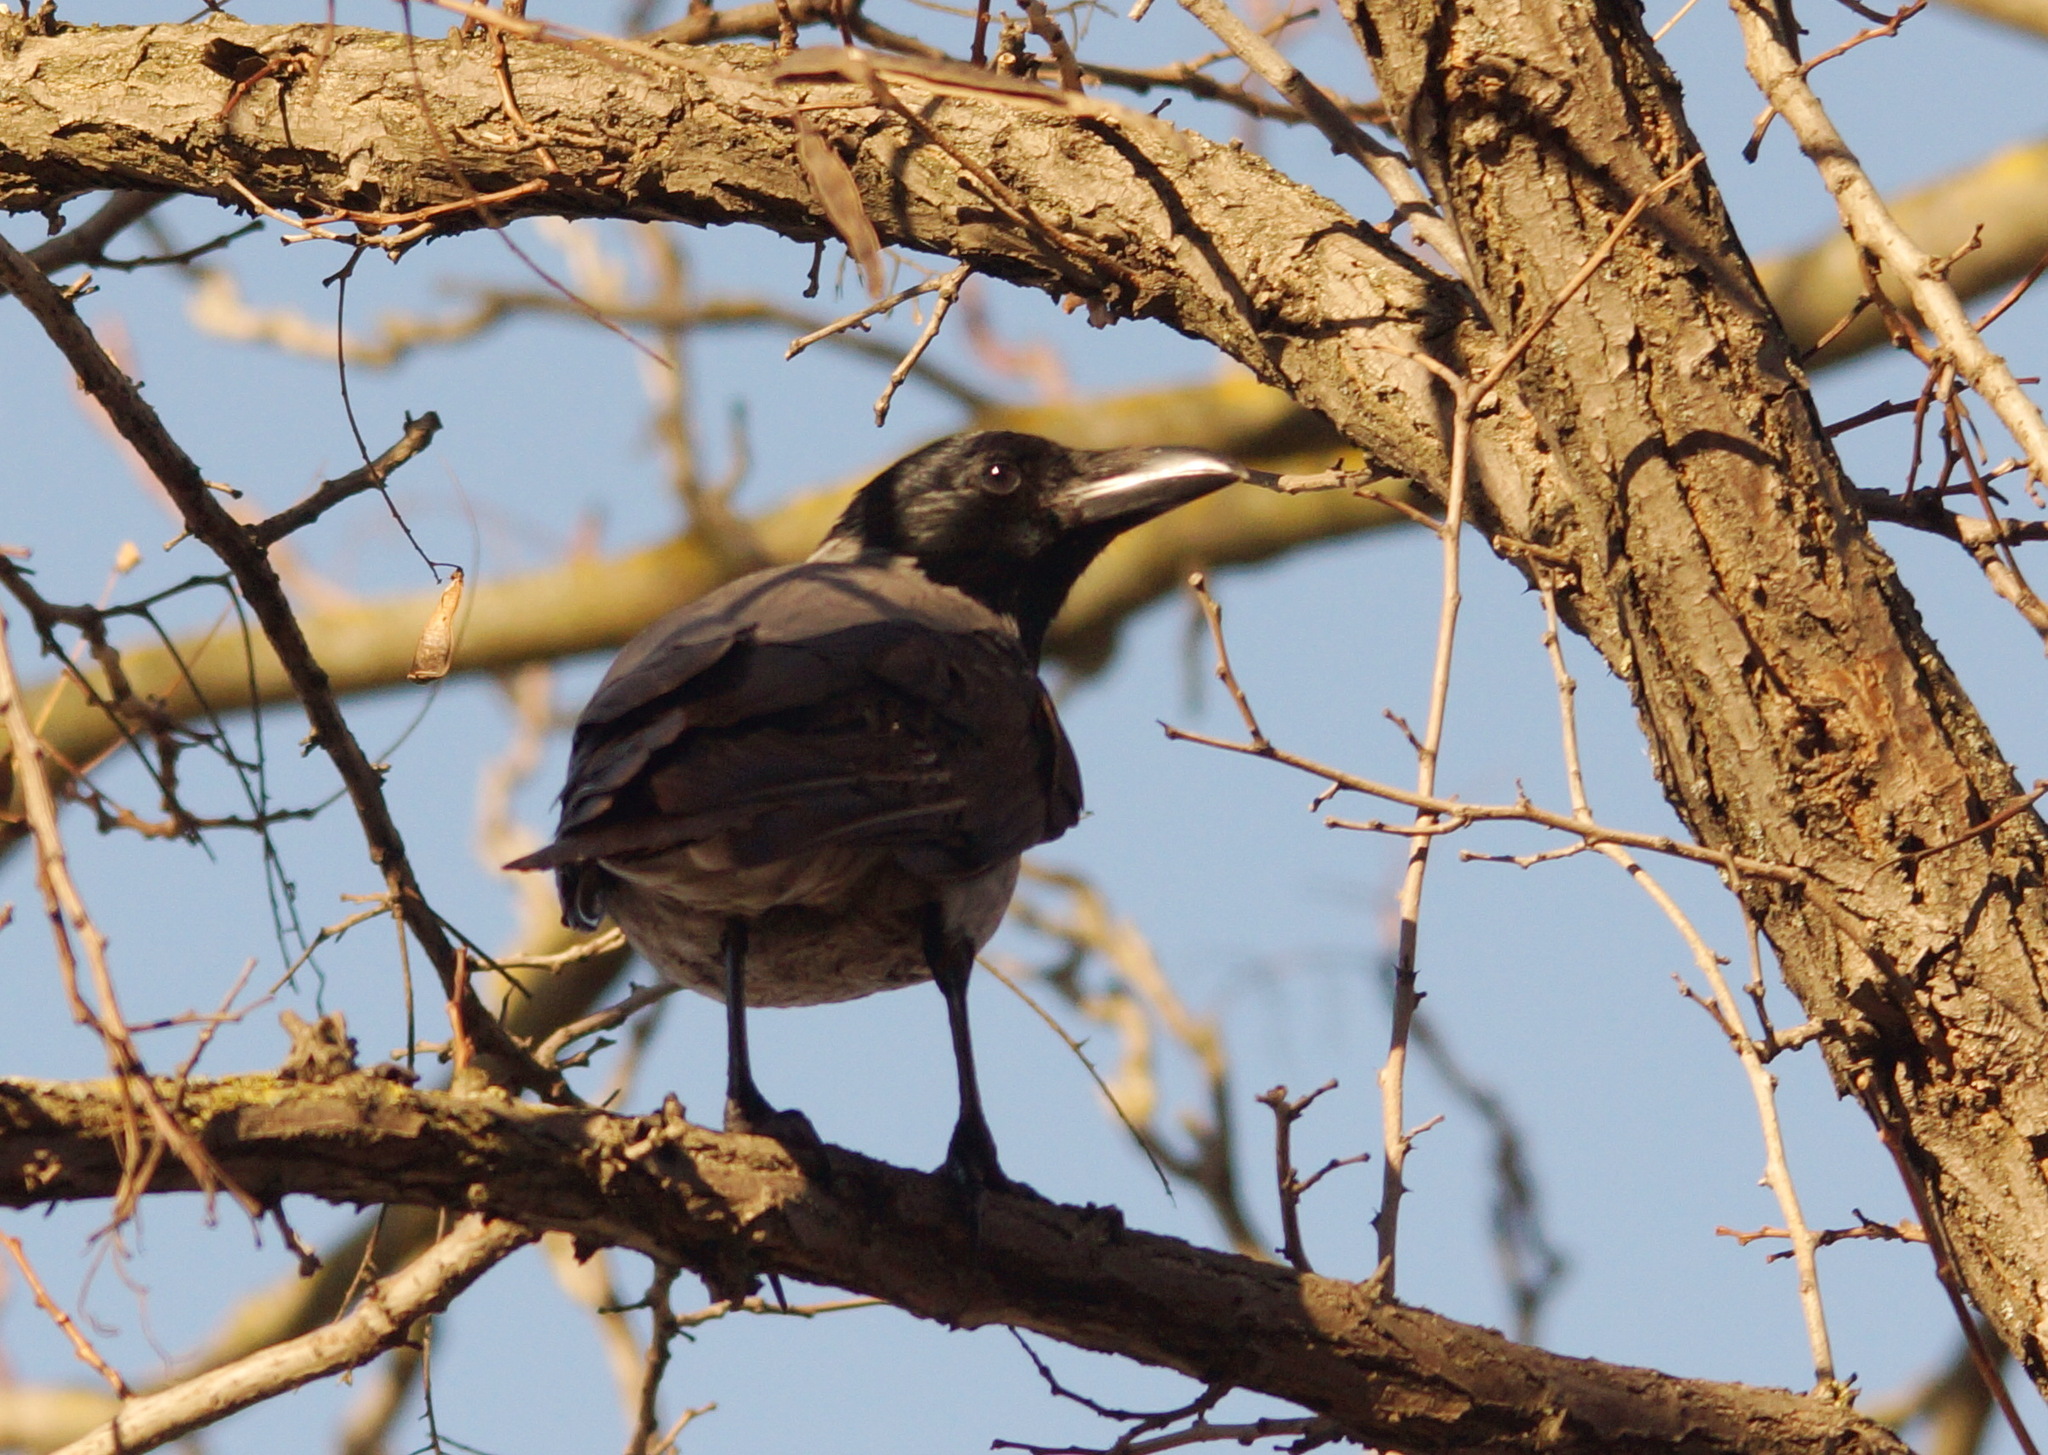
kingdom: Animalia
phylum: Chordata
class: Aves
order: Passeriformes
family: Corvidae
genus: Corvus
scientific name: Corvus cornix
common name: Hooded crow
